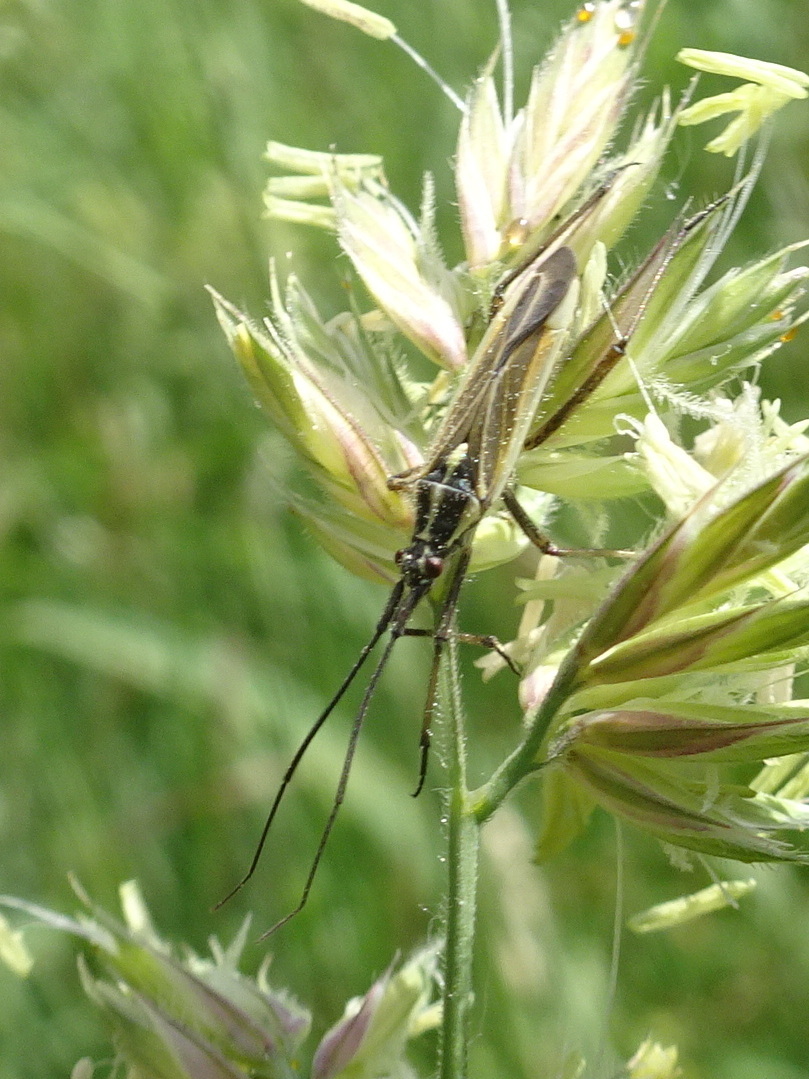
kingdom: Animalia
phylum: Arthropoda
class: Insecta
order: Hemiptera
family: Miridae
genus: Leptopterna
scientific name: Leptopterna dolabrata
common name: Meadow plant bug
